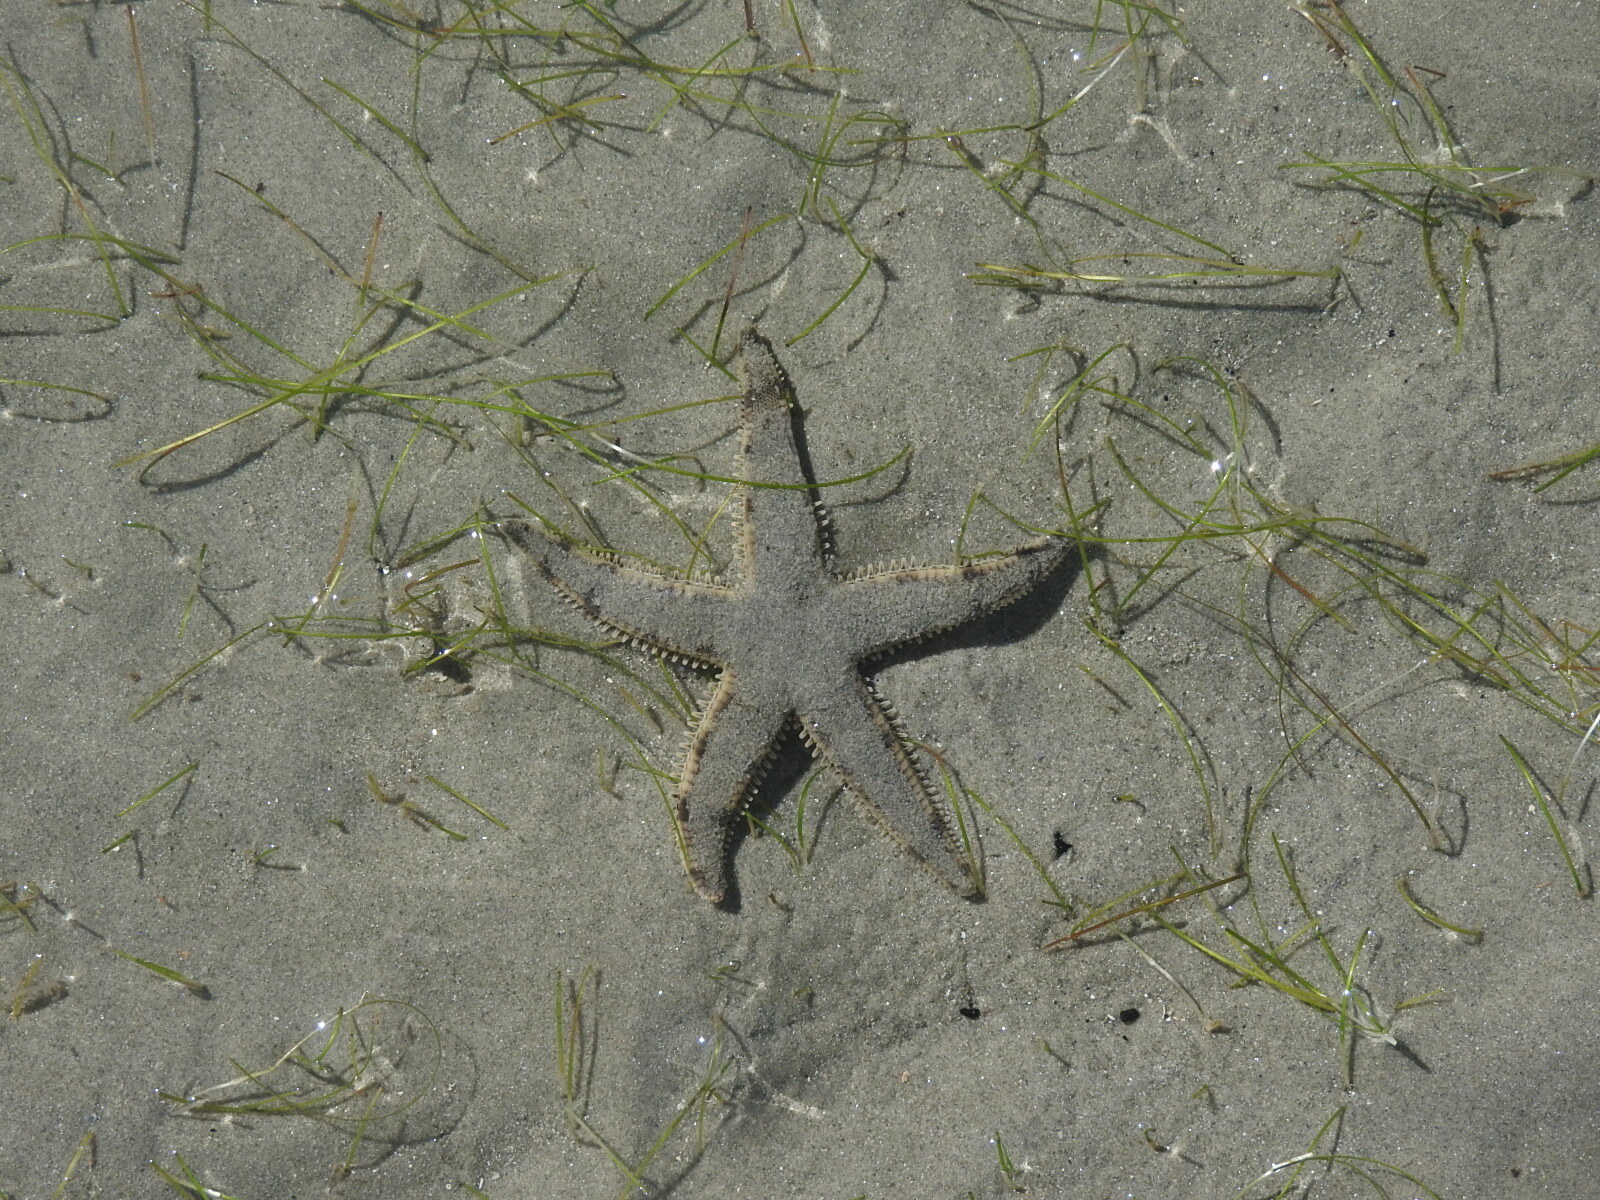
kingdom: Animalia
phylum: Echinodermata
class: Asteroidea
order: Valvatida
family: Archasteridae
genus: Archaster
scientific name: Archaster typicus
